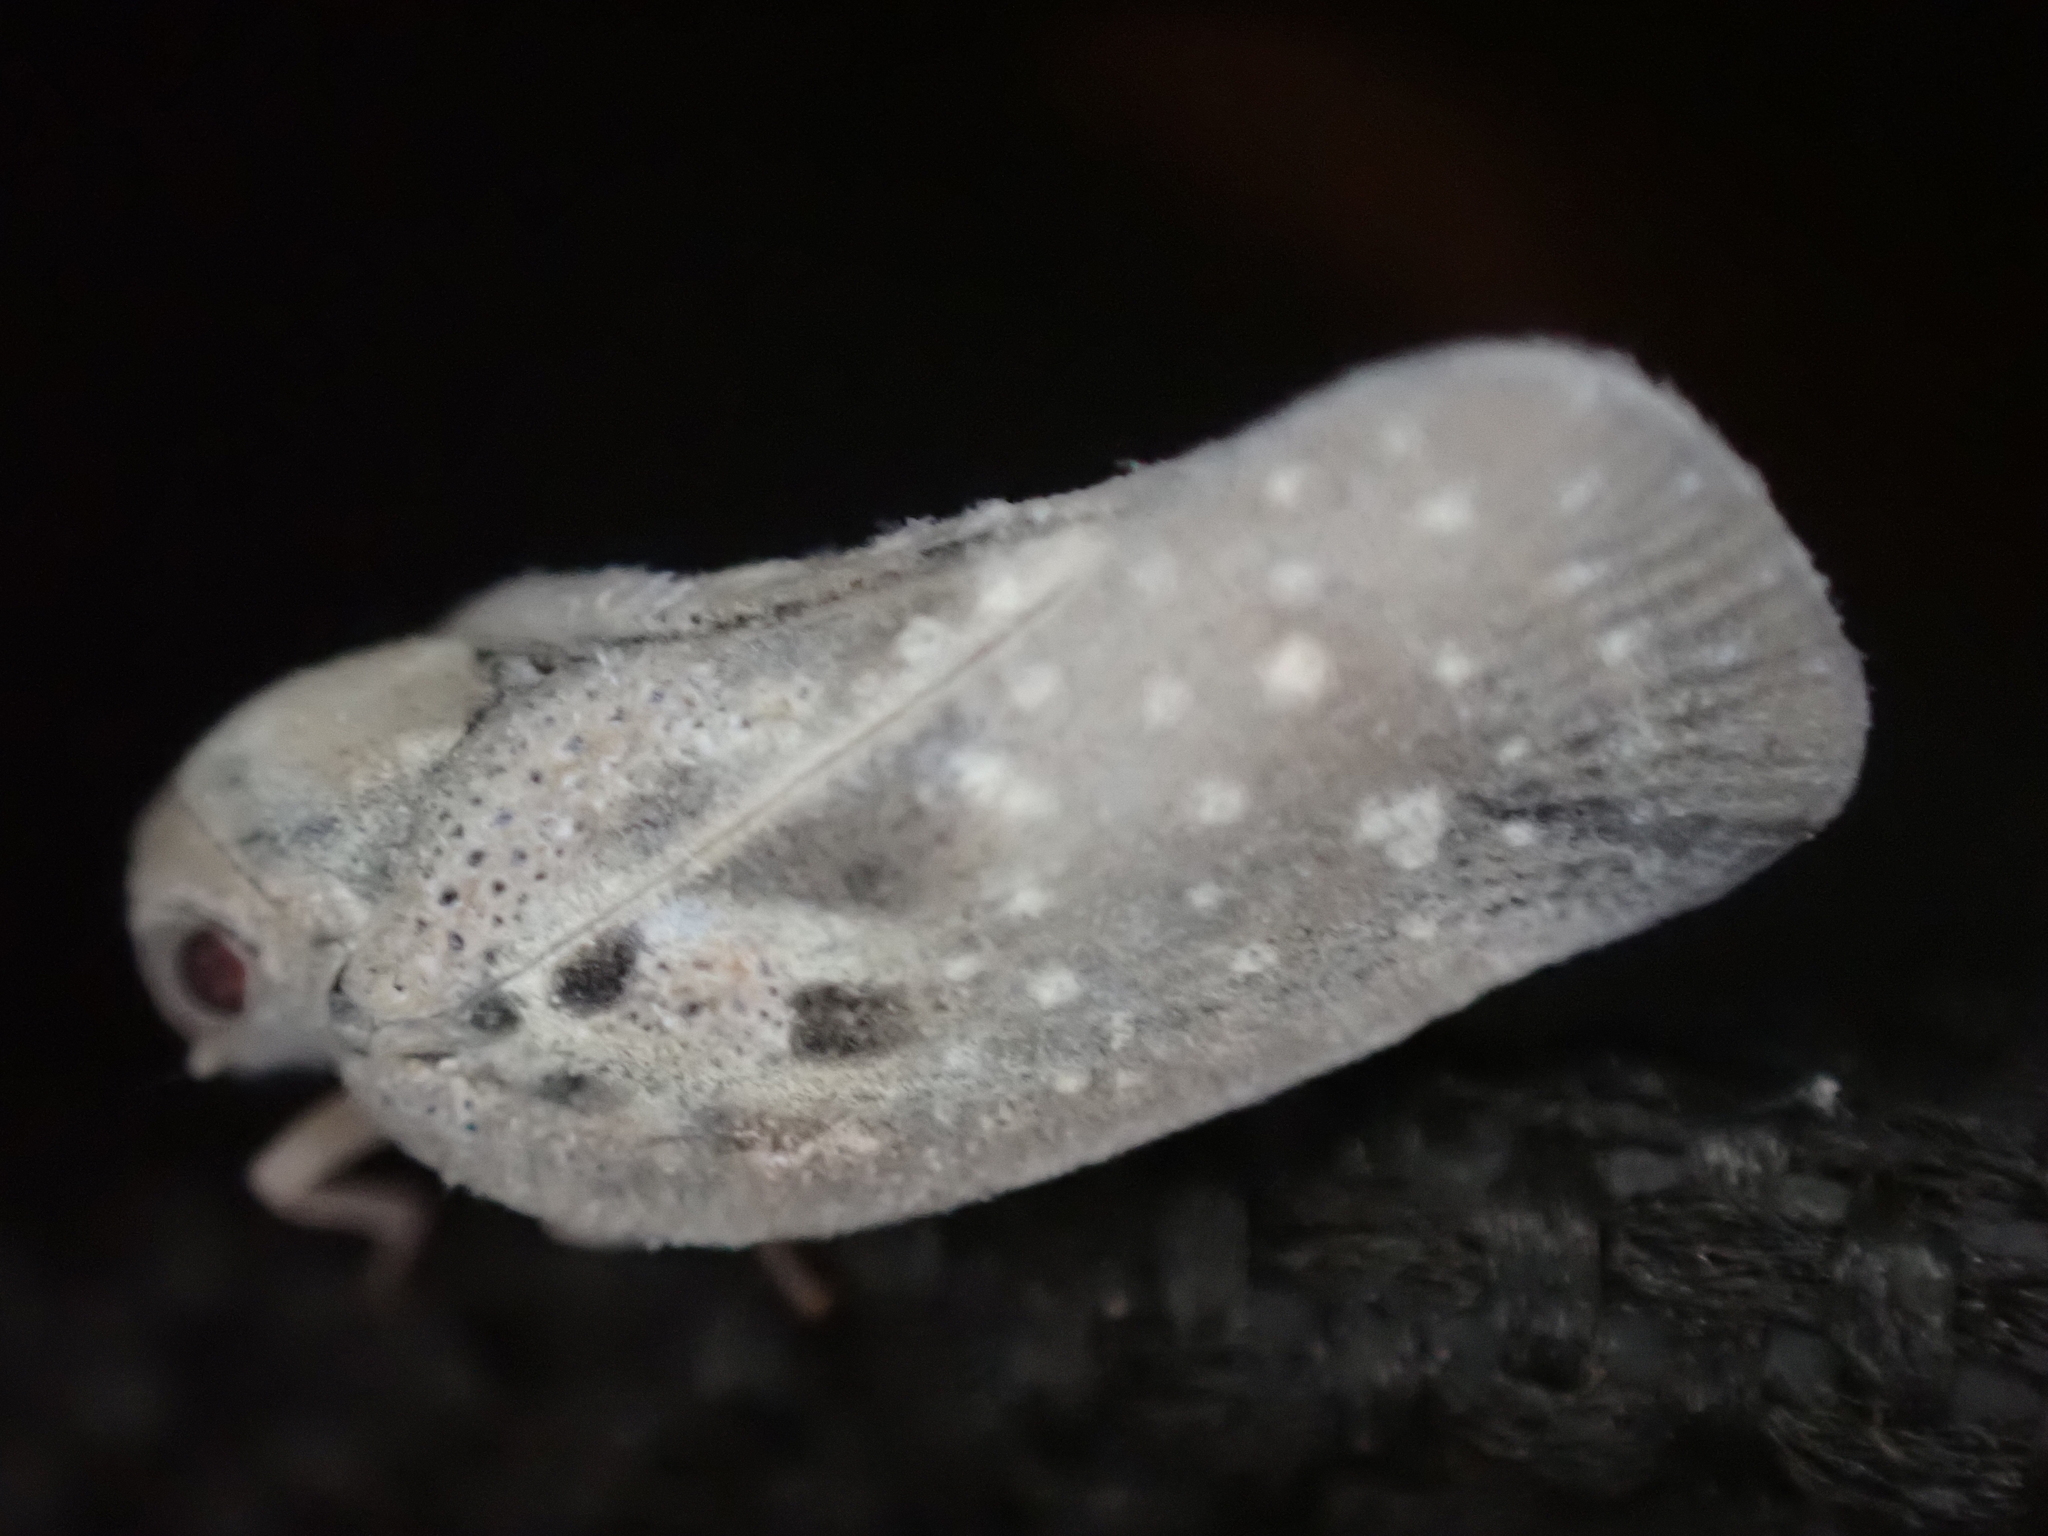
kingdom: Animalia
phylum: Arthropoda
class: Insecta
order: Hemiptera
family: Flatidae
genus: Metcalfa
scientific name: Metcalfa pruinosa
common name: Citrus flatid planthopper
